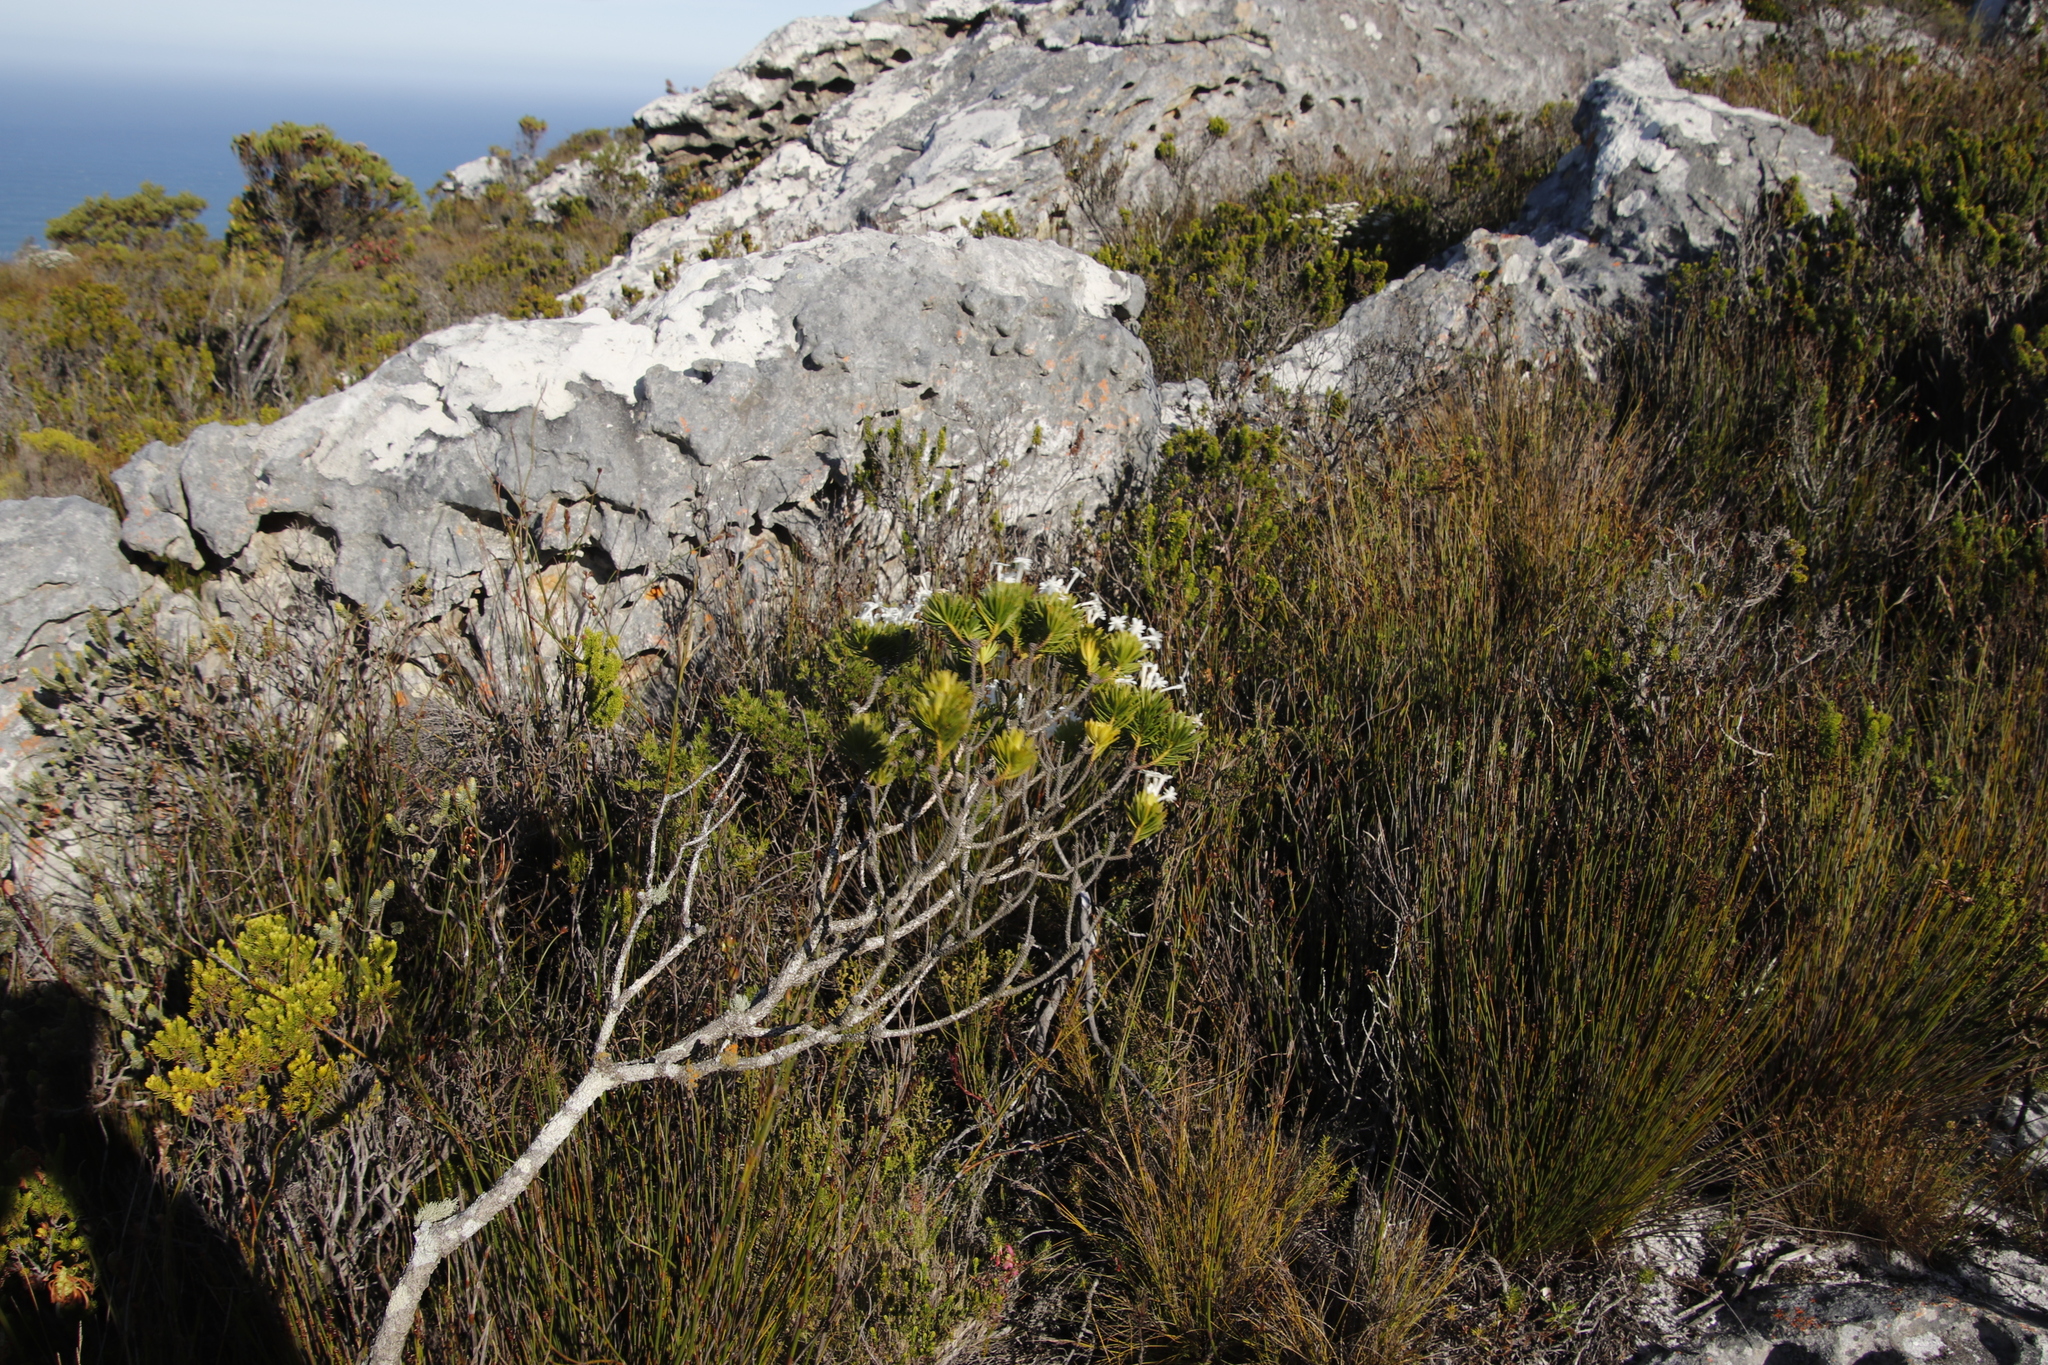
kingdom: Plantae
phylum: Tracheophyta
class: Magnoliopsida
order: Malvales
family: Thymelaeaceae
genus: Gnidia
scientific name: Gnidia pinifolia
